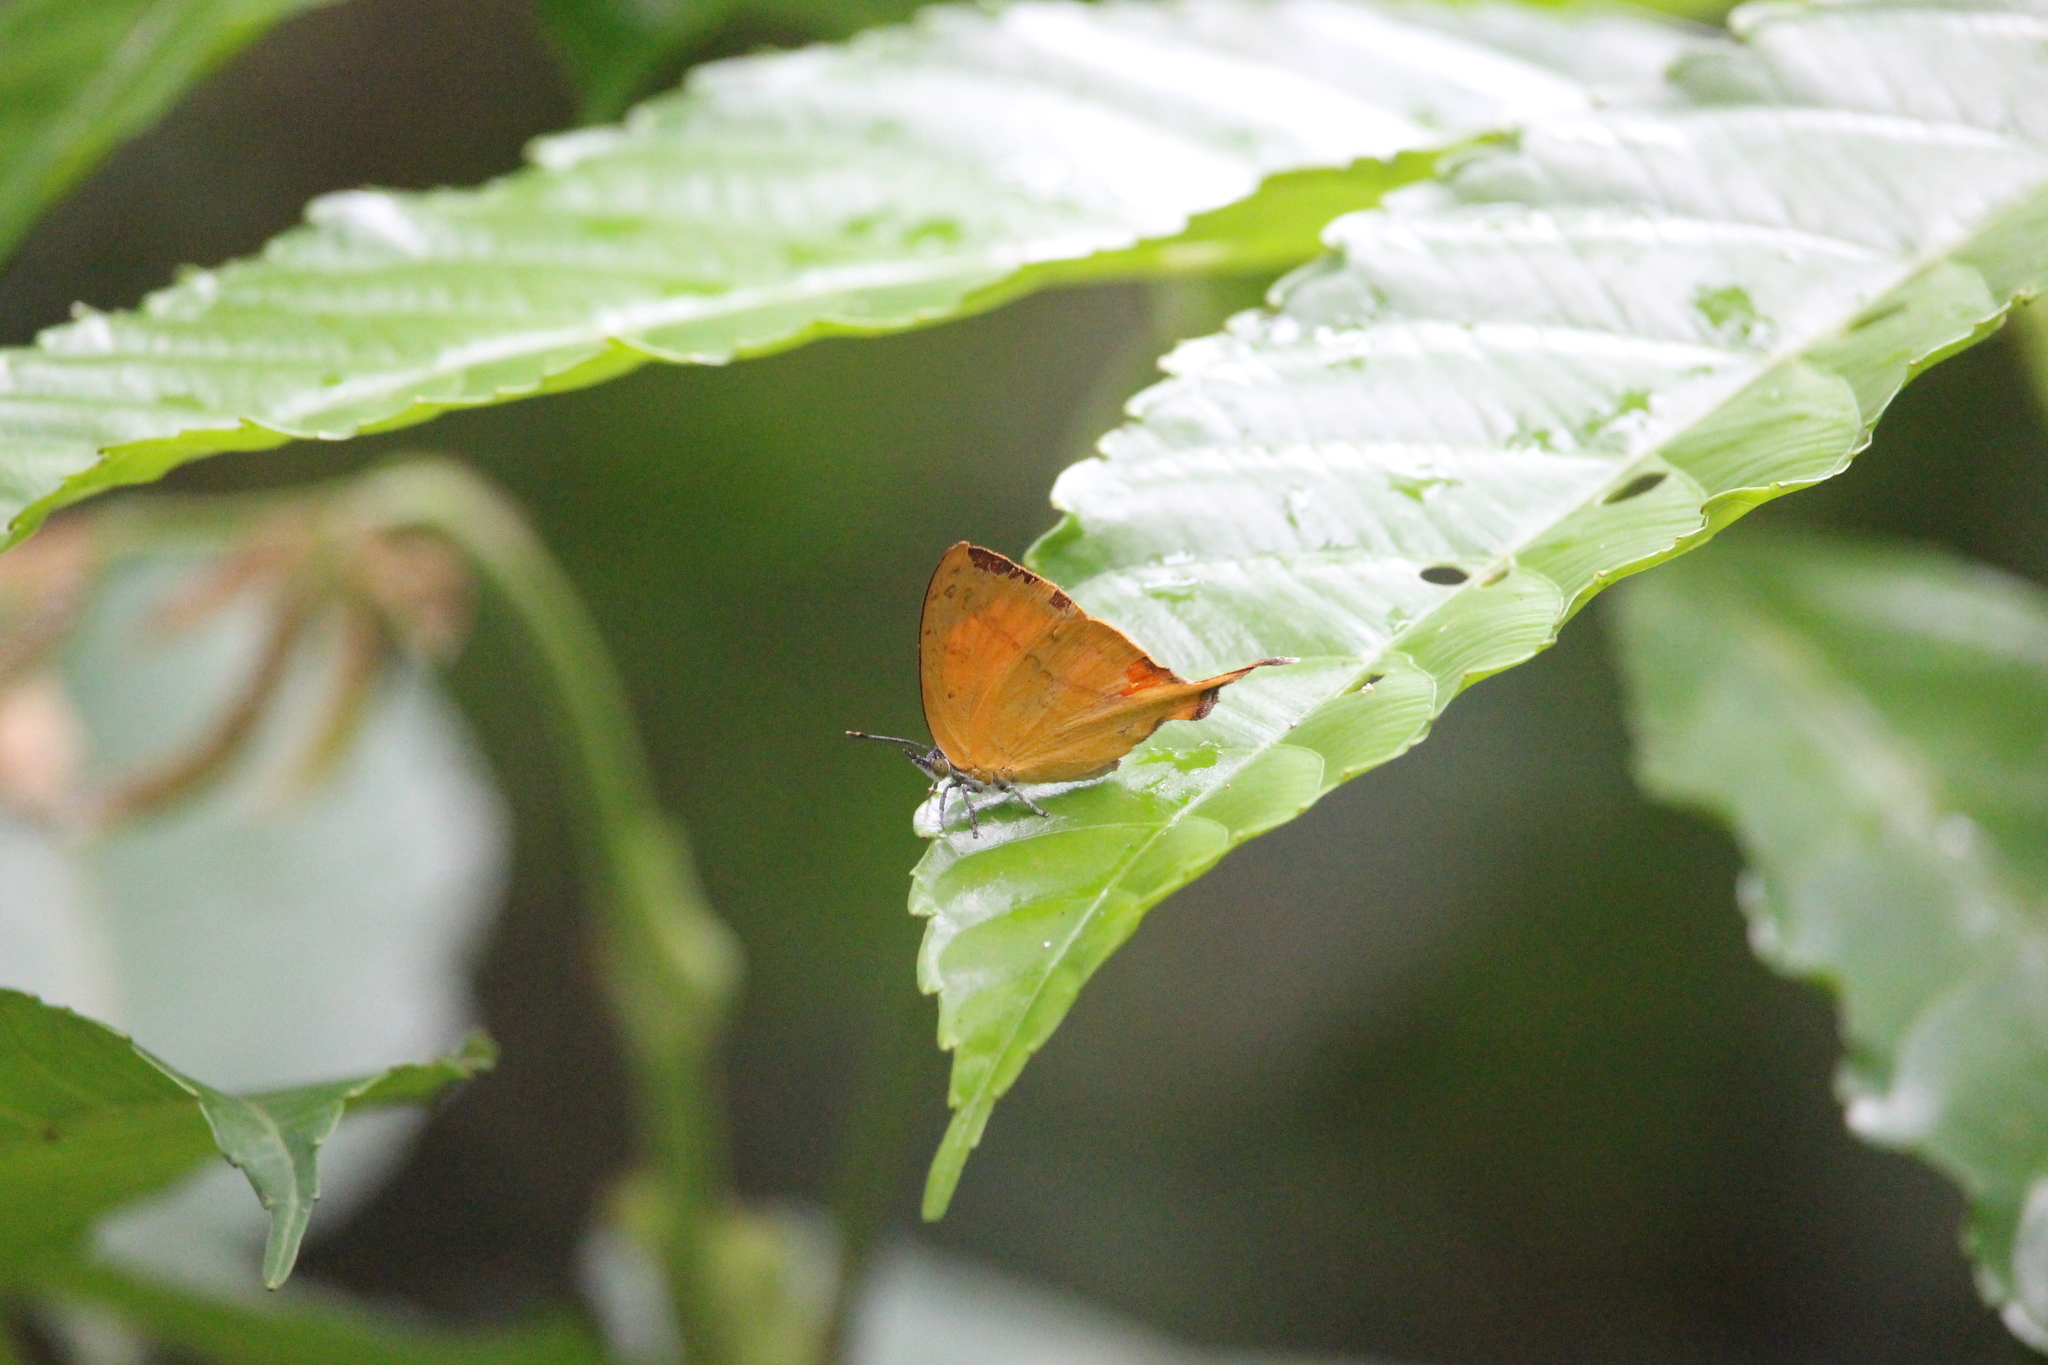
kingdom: Animalia
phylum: Arthropoda
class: Insecta
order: Lepidoptera
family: Lycaenidae
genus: Loxura
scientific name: Loxura atymnus
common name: Common yamfly
